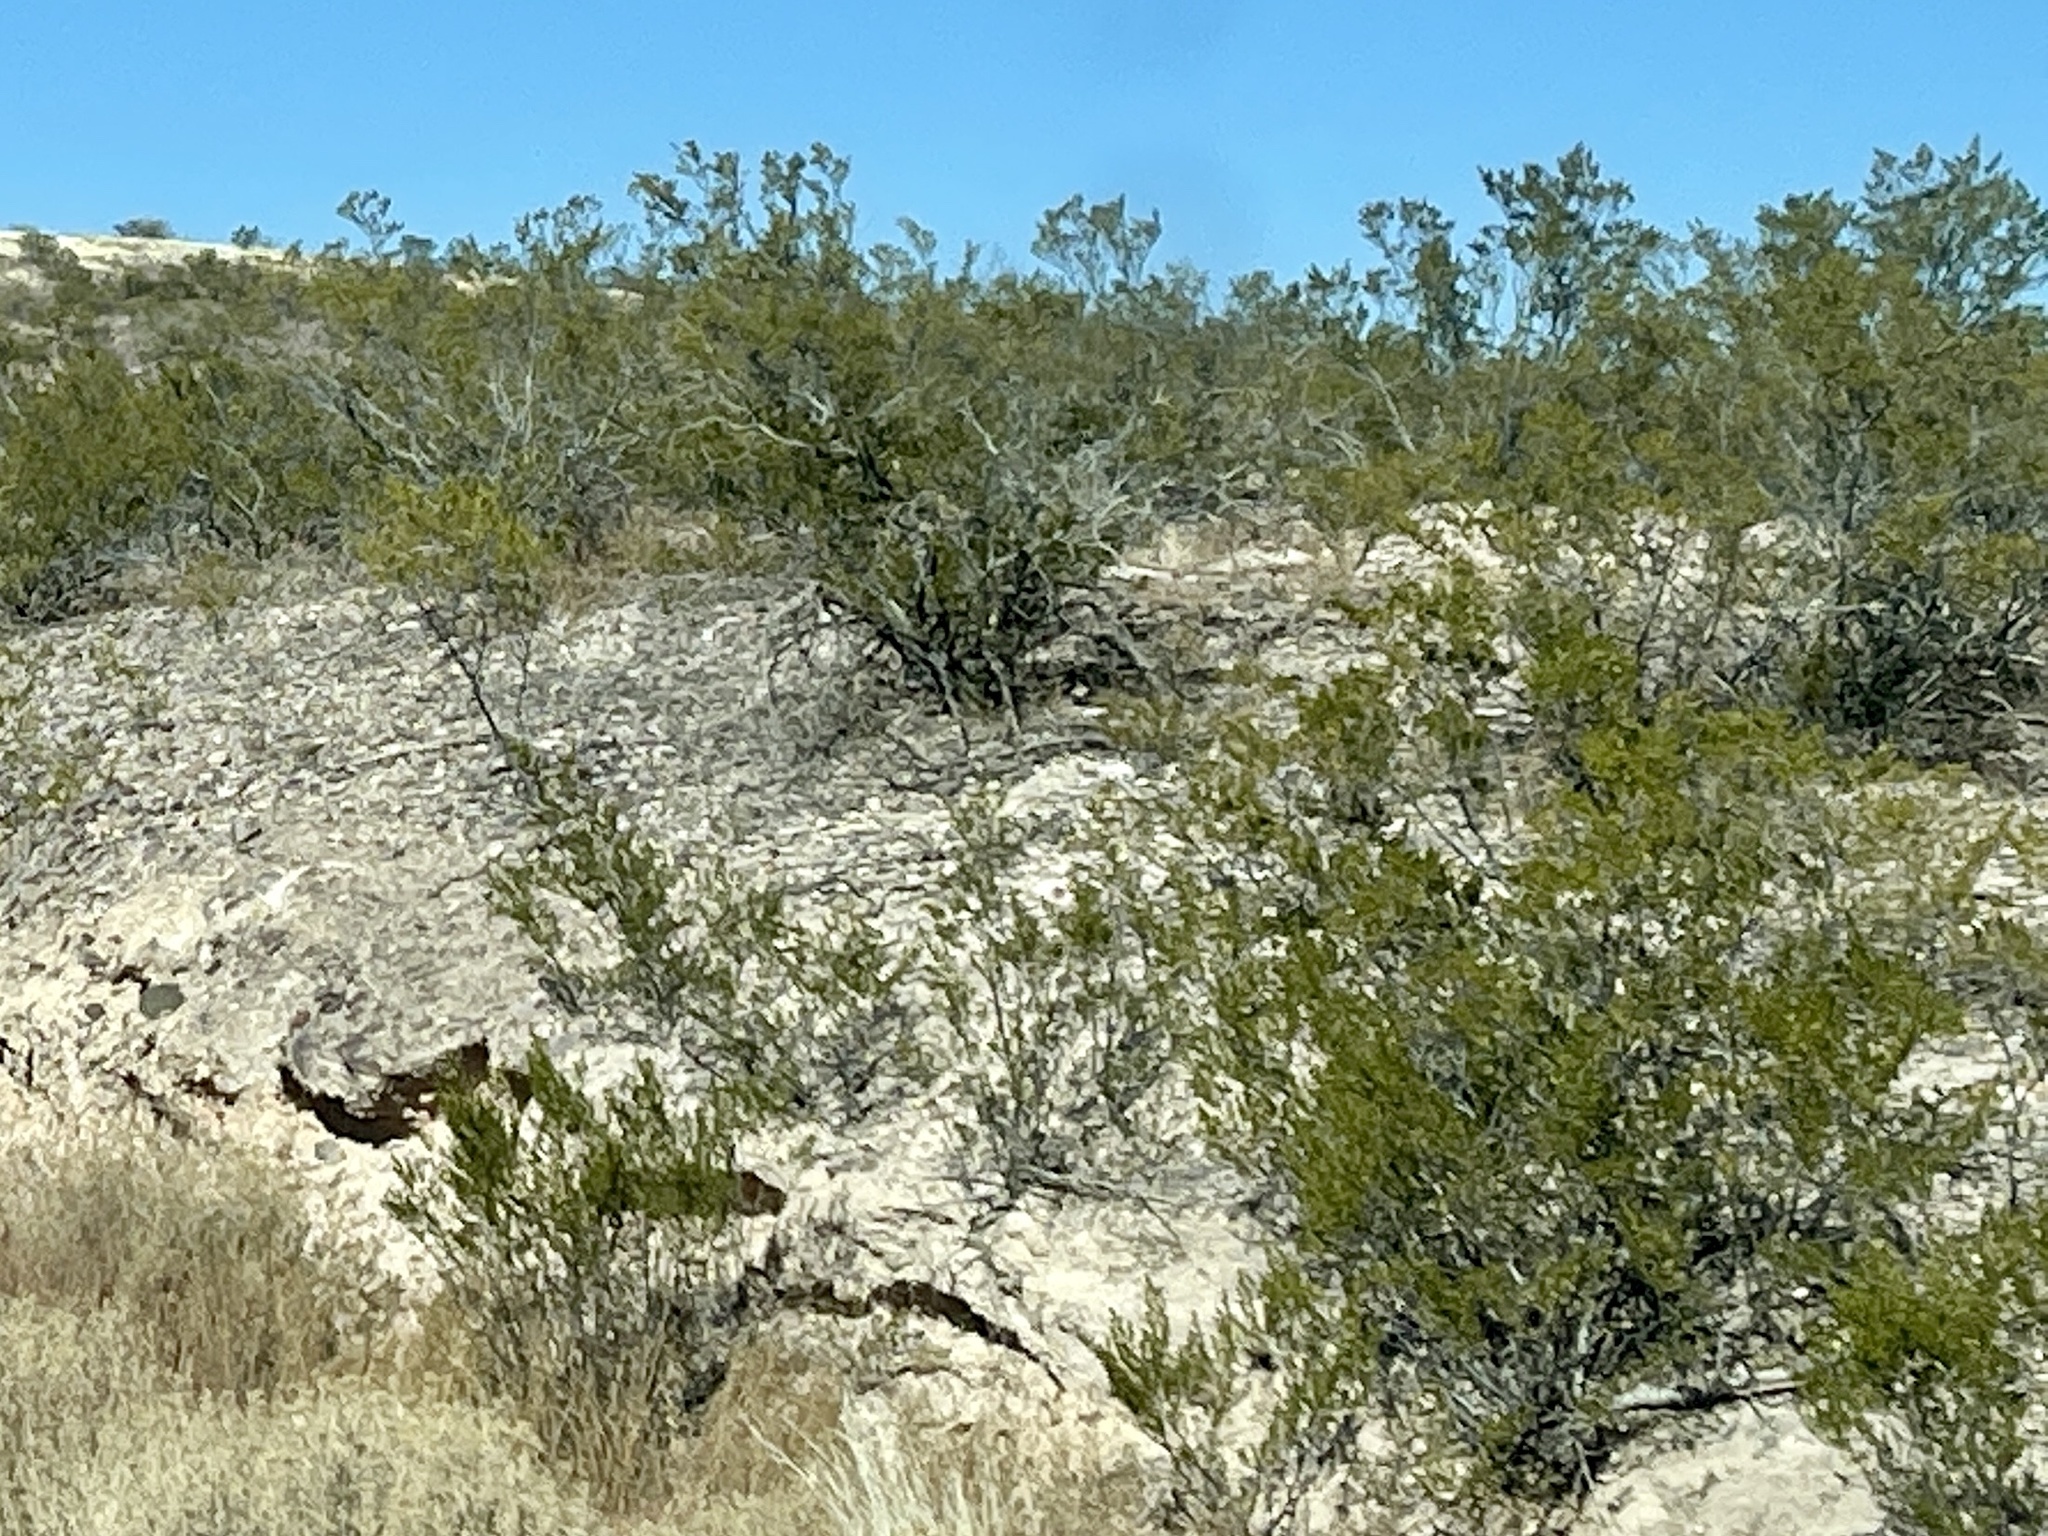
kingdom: Plantae
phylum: Tracheophyta
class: Magnoliopsida
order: Zygophyllales
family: Zygophyllaceae
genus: Larrea
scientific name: Larrea tridentata
